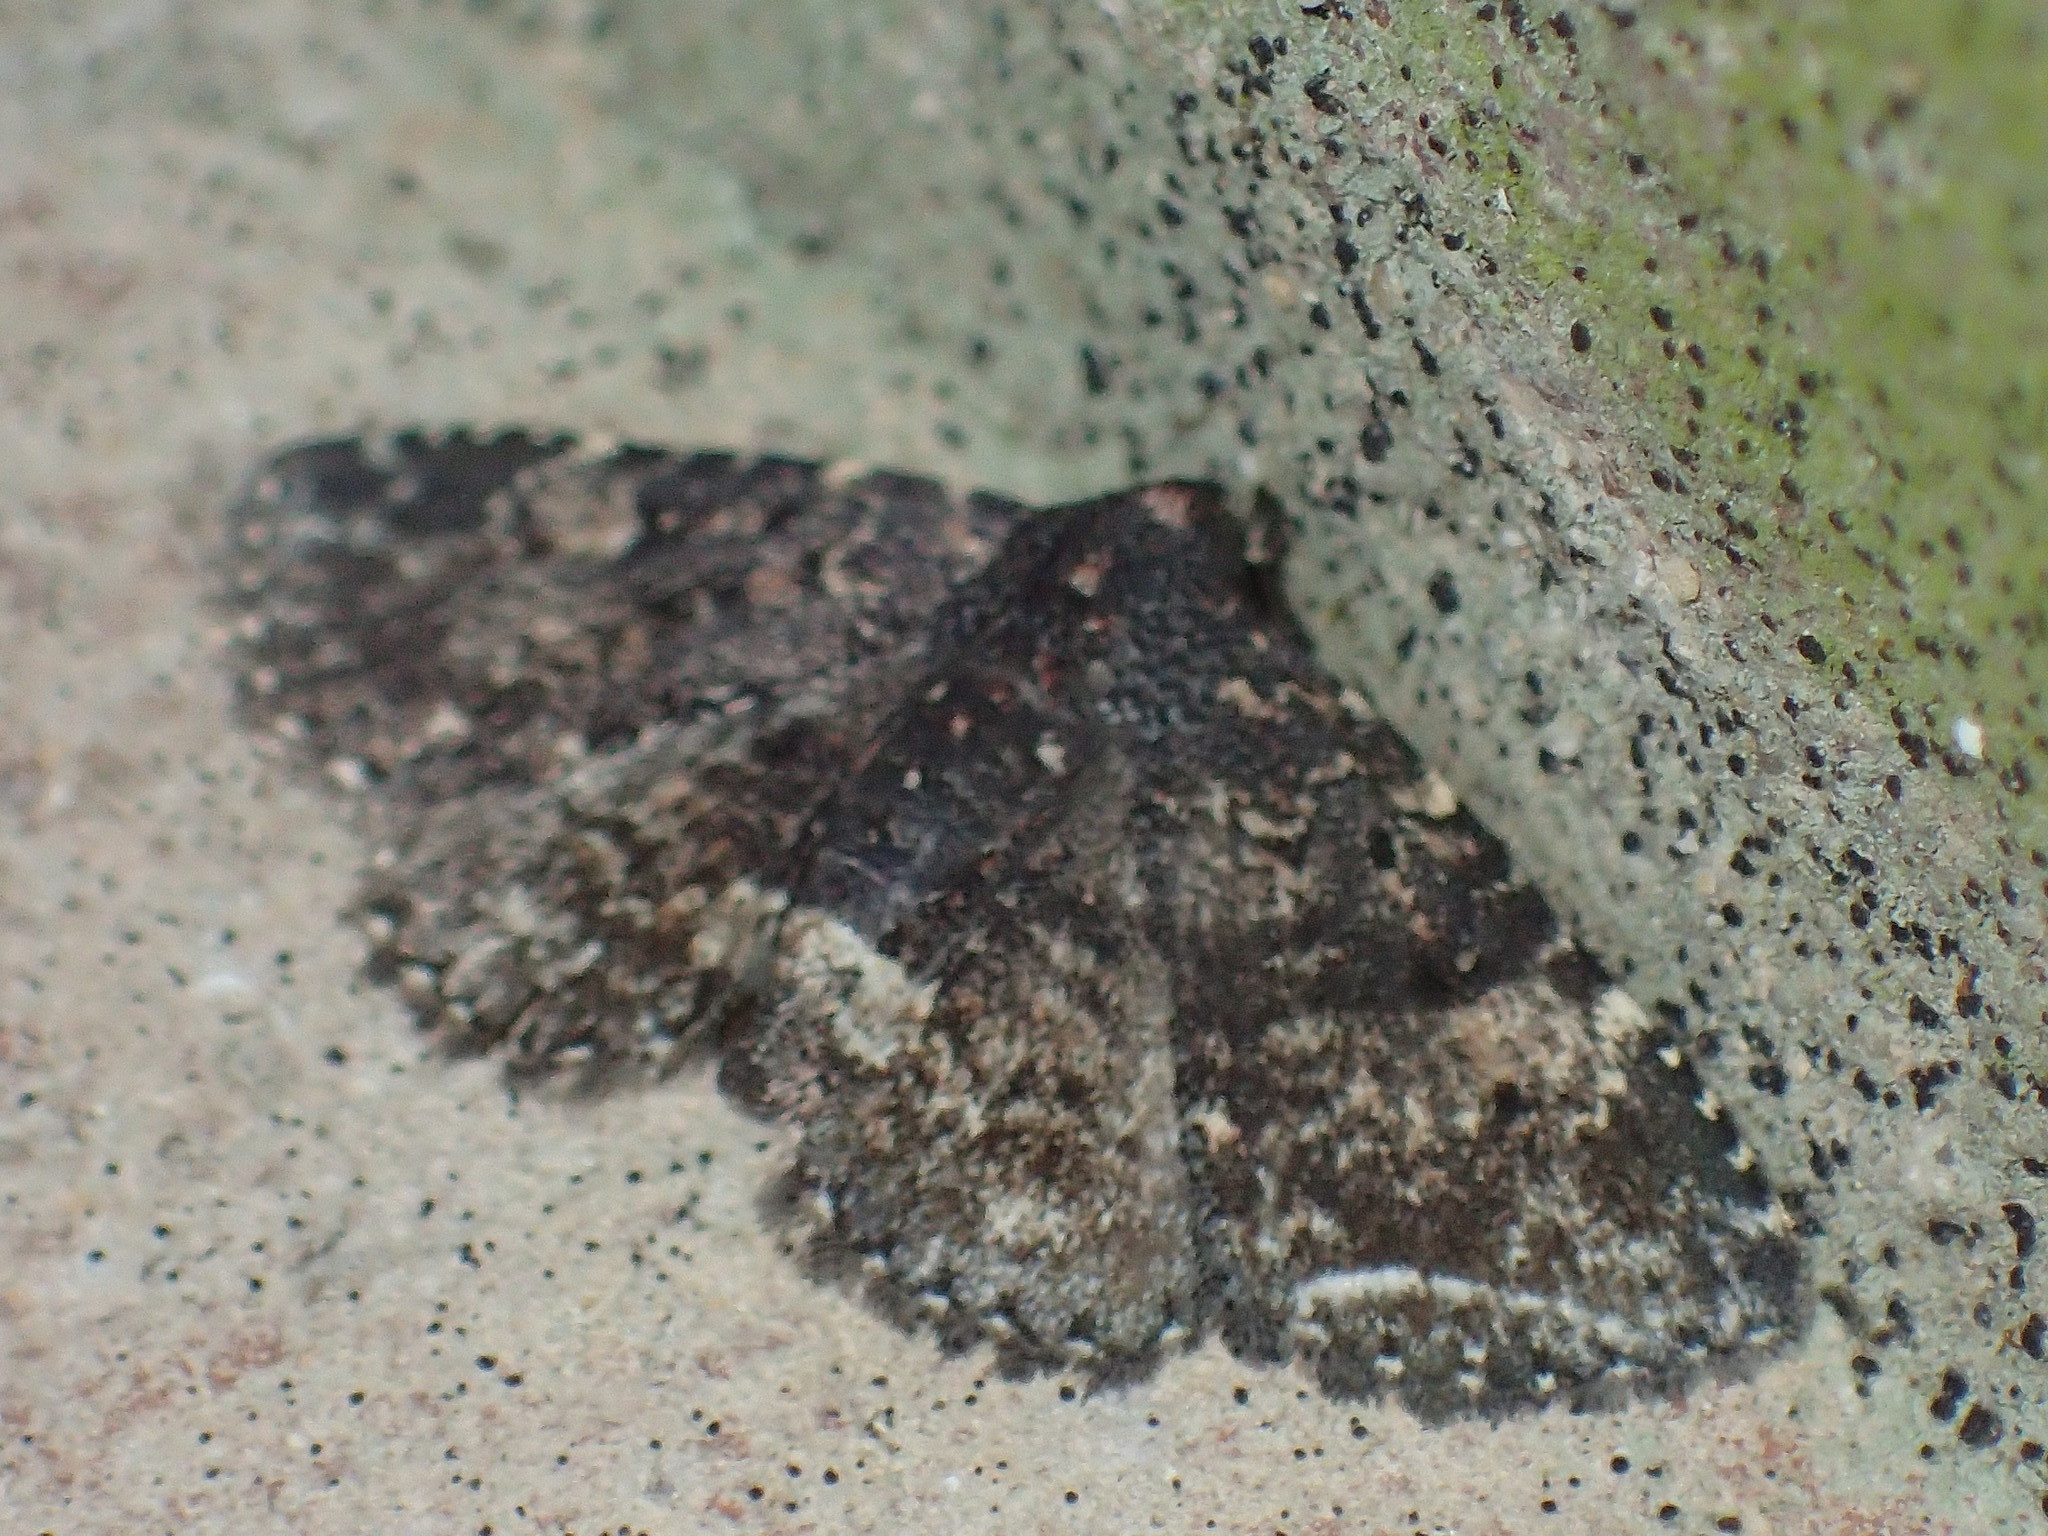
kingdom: Animalia
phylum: Arthropoda
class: Insecta
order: Lepidoptera
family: Erebidae
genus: Metalectra
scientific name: Metalectra diabolica
